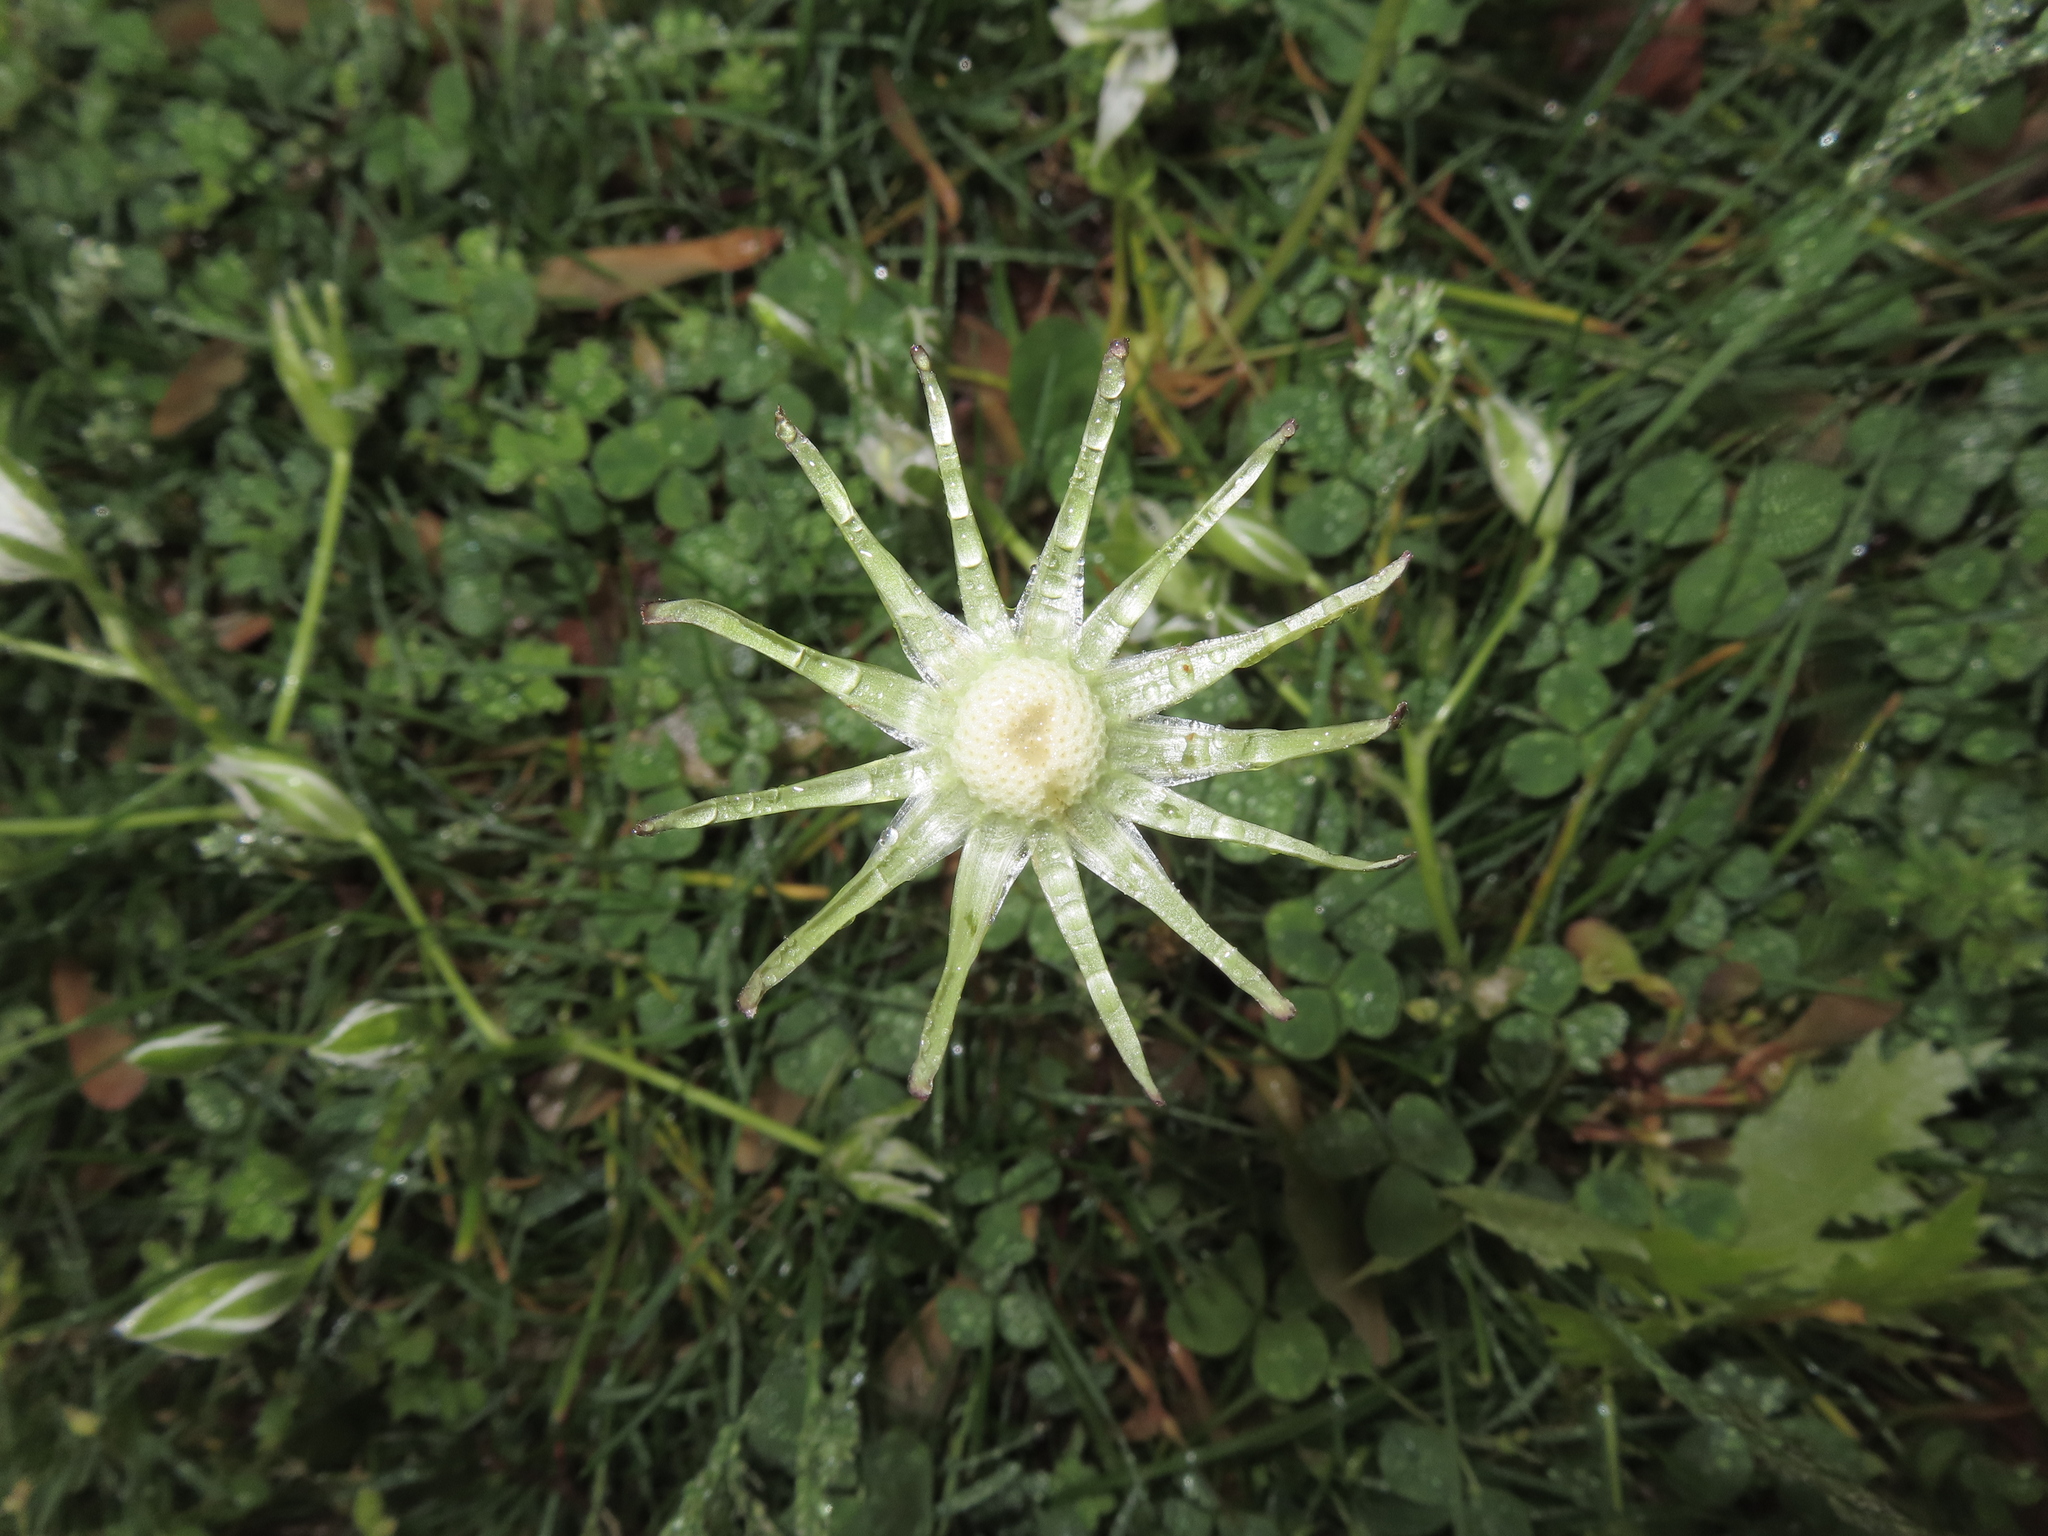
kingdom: Plantae
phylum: Tracheophyta
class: Magnoliopsida
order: Asterales
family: Asteraceae
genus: Taraxacum
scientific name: Taraxacum
